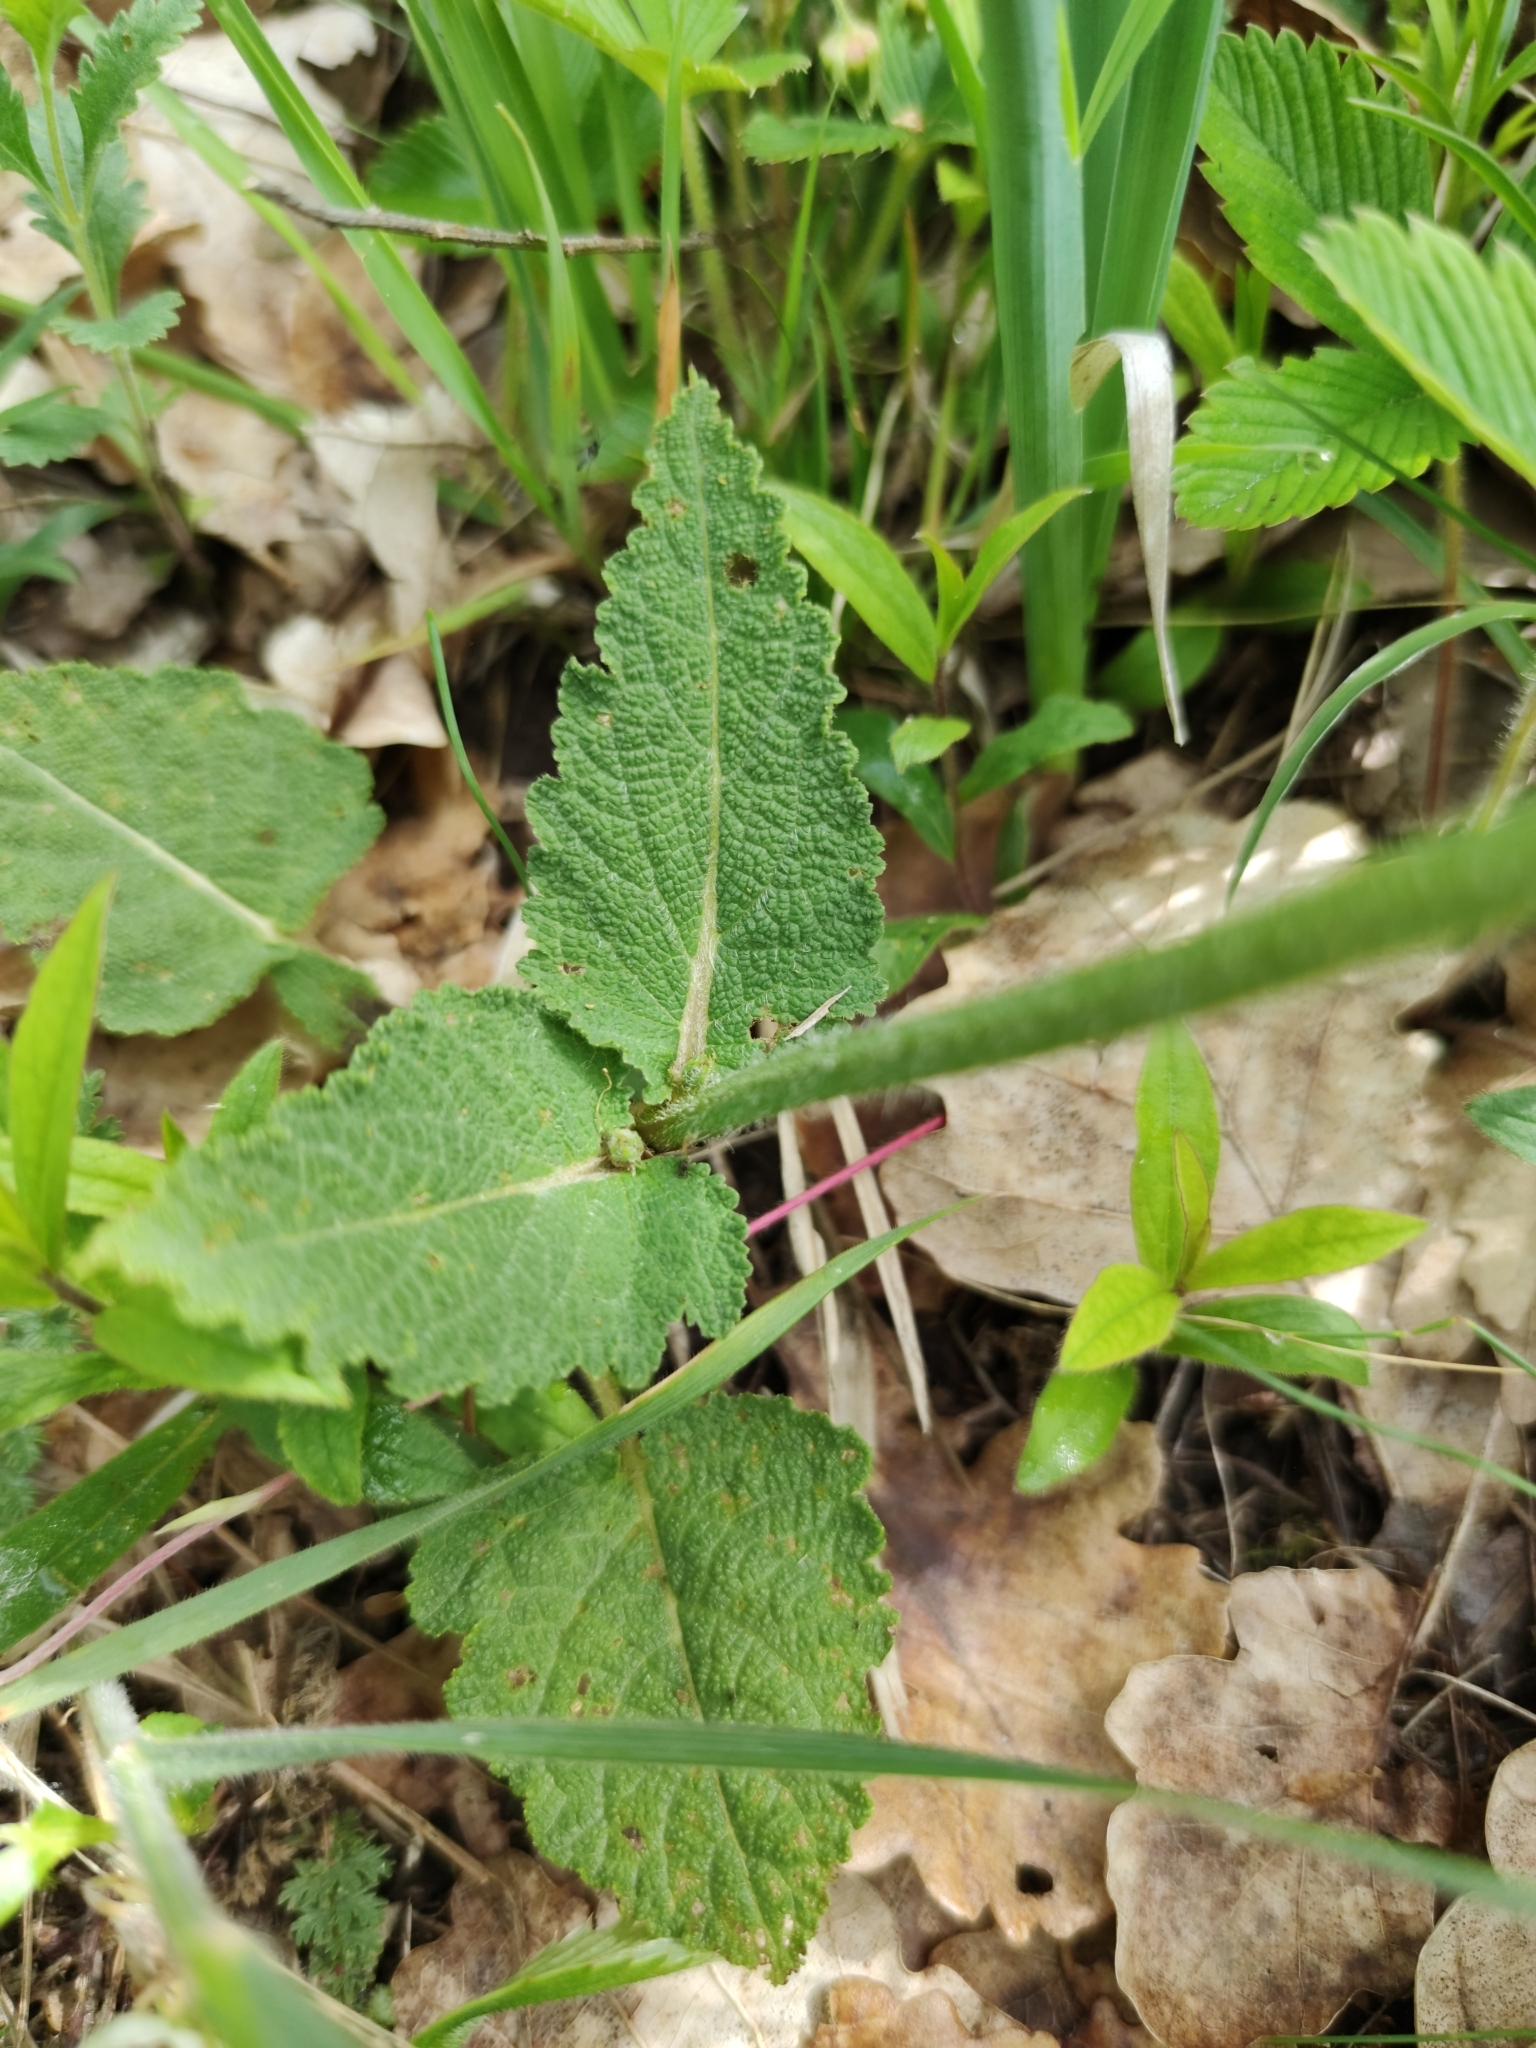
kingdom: Plantae
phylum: Tracheophyta
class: Magnoliopsida
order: Lamiales
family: Lamiaceae
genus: Salvia
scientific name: Salvia pratensis
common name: Meadow sage
